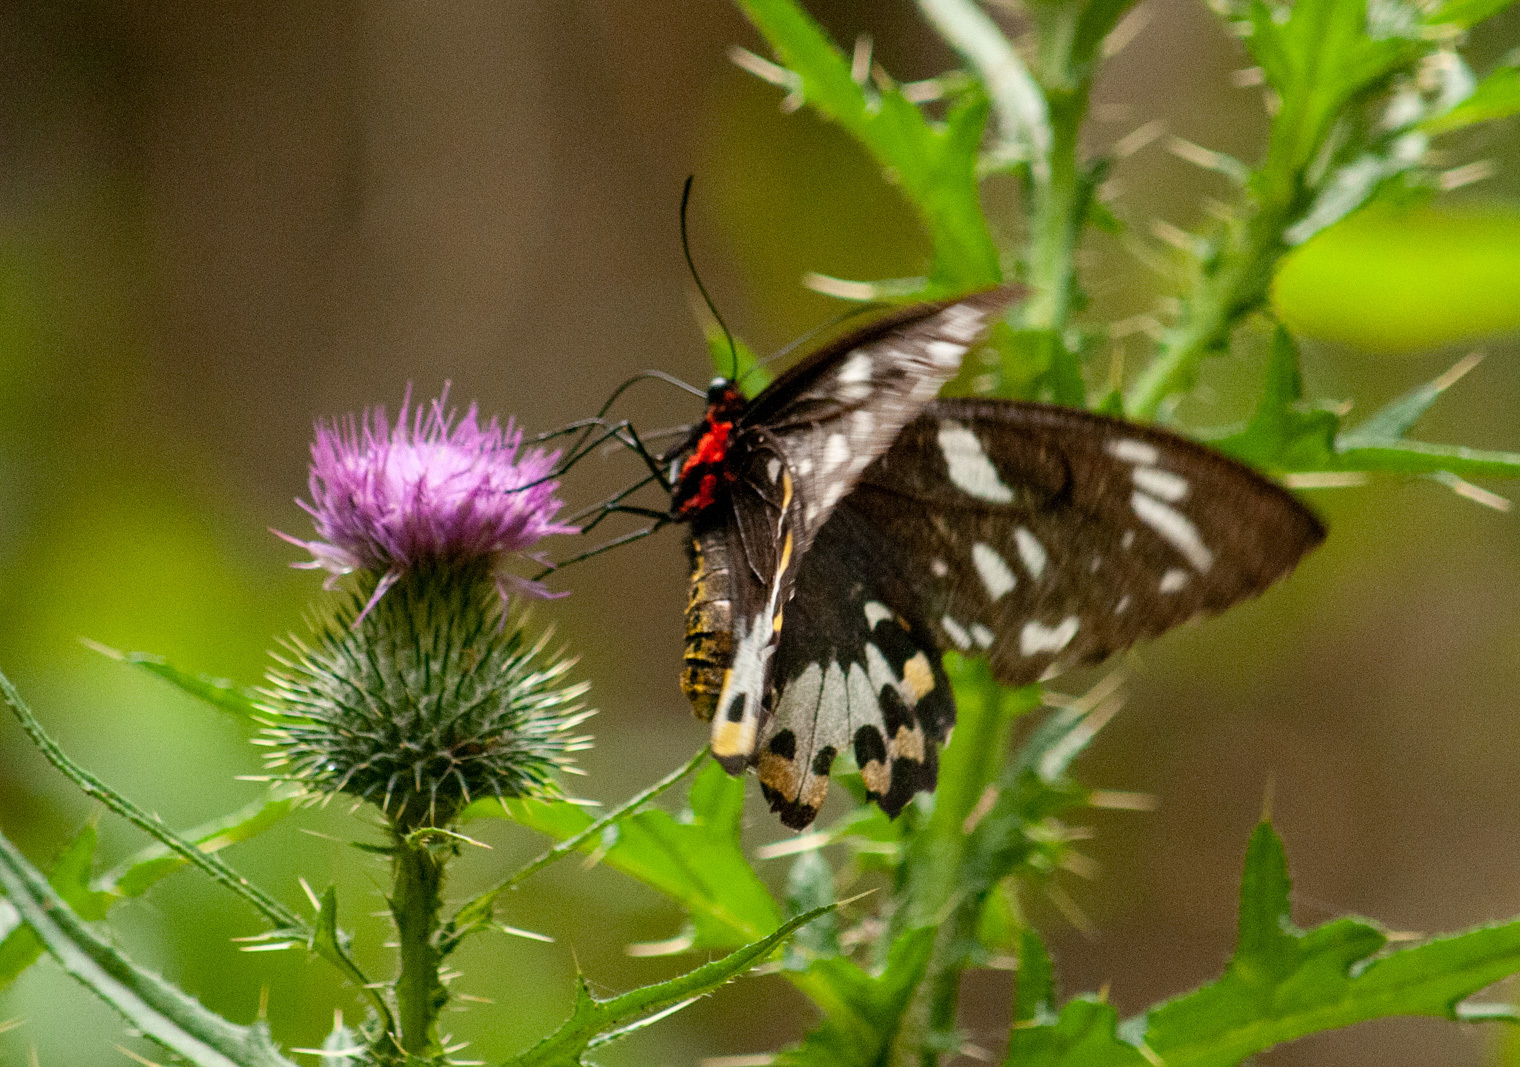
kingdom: Animalia
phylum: Arthropoda
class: Insecta
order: Lepidoptera
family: Papilionidae
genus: Ornithoptera
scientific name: Ornithoptera richmondia
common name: Richmond birdwing
